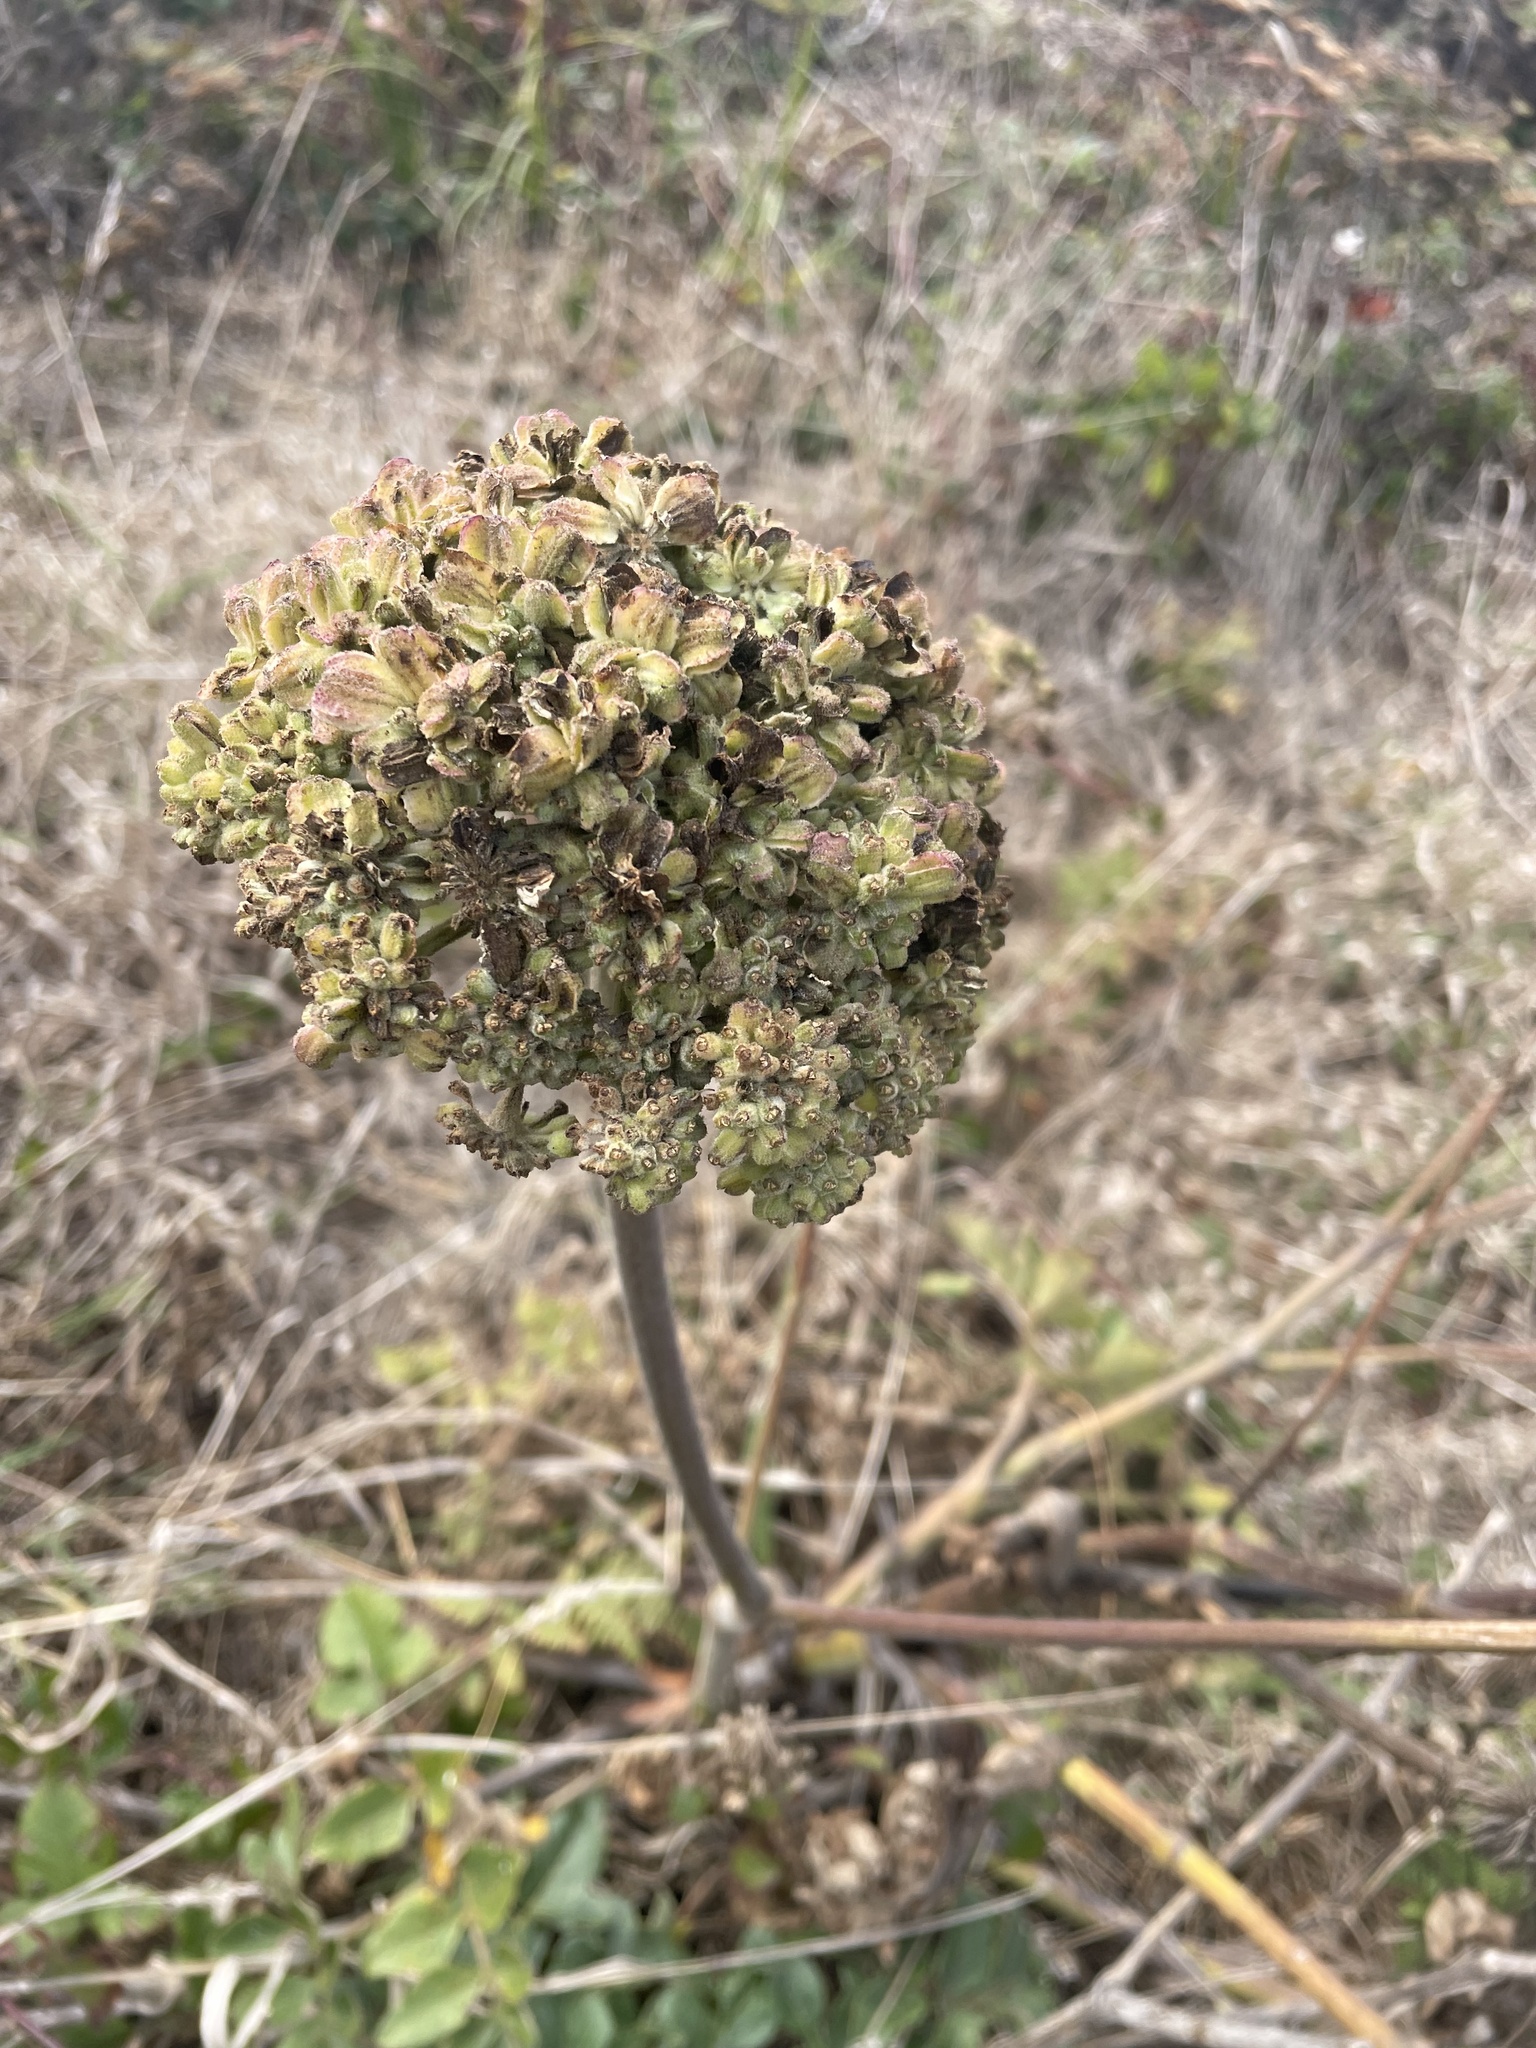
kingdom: Plantae
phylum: Tracheophyta
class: Magnoliopsida
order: Apiales
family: Apiaceae
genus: Angelica
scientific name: Angelica hendersonii
